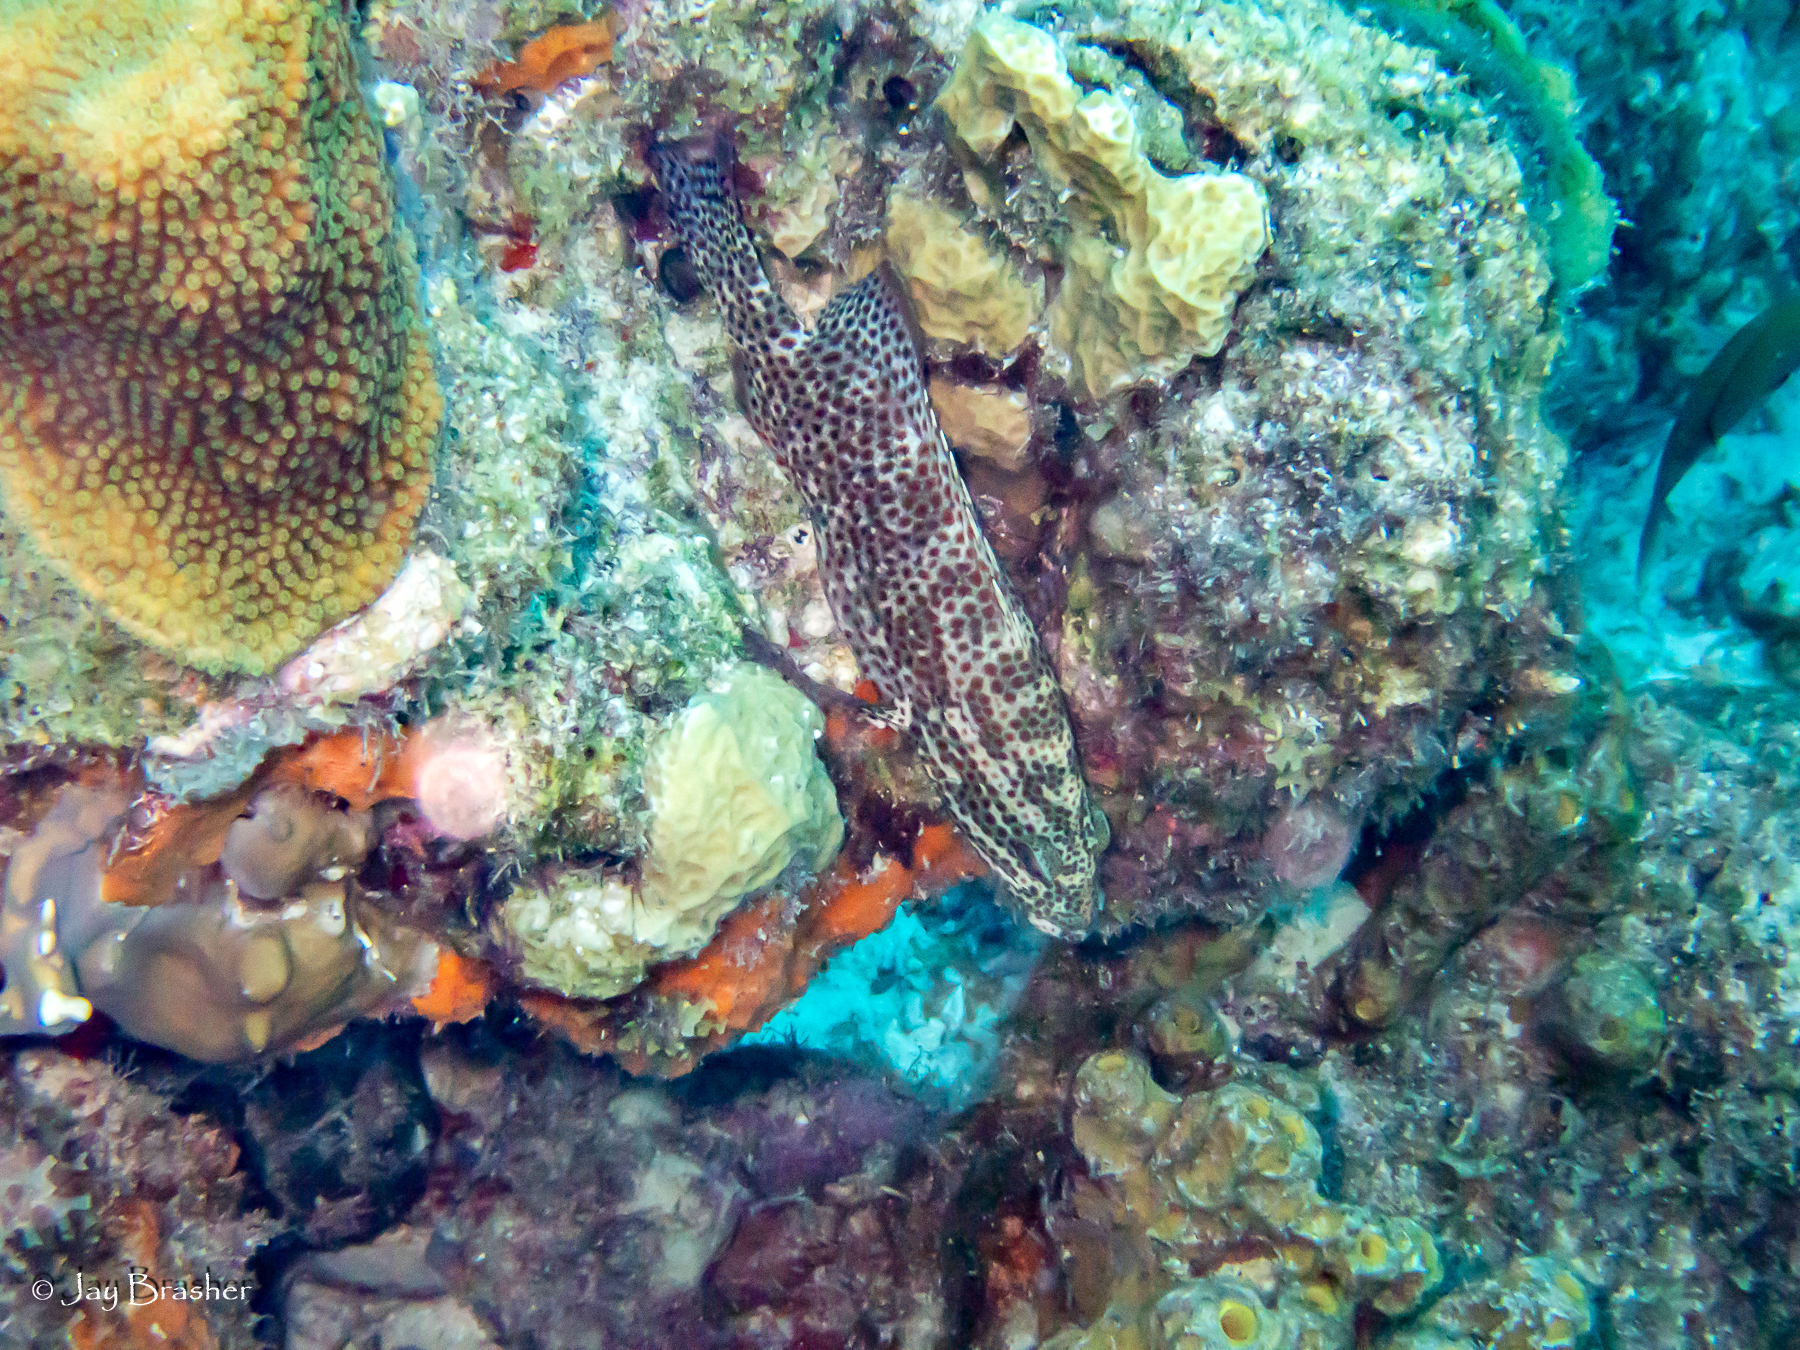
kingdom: Animalia
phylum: Chordata
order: Perciformes
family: Serranidae
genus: Cephalopholis
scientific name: Cephalopholis cruentata
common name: Graysby
